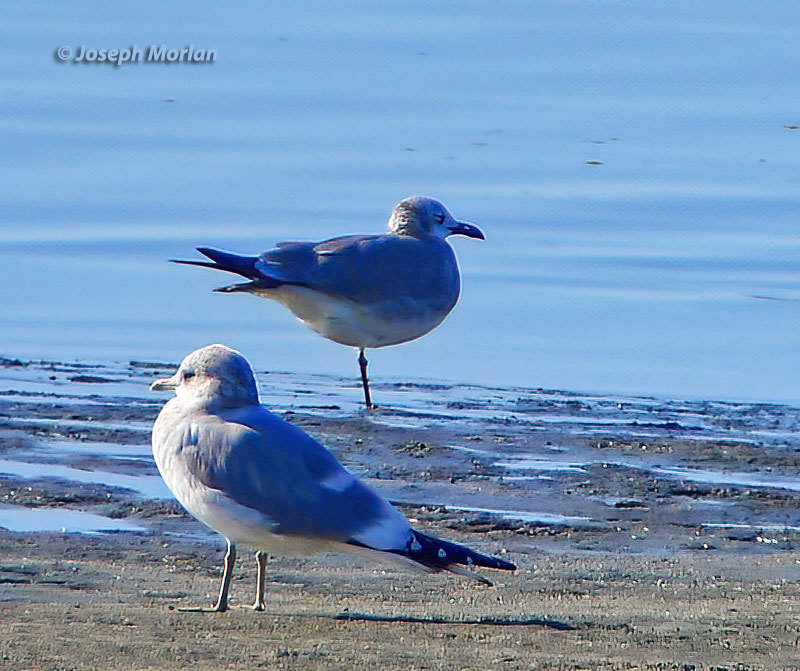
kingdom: Animalia
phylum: Chordata
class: Aves
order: Charadriiformes
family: Laridae
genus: Leucophaeus
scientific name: Leucophaeus atricilla
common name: Laughing gull
